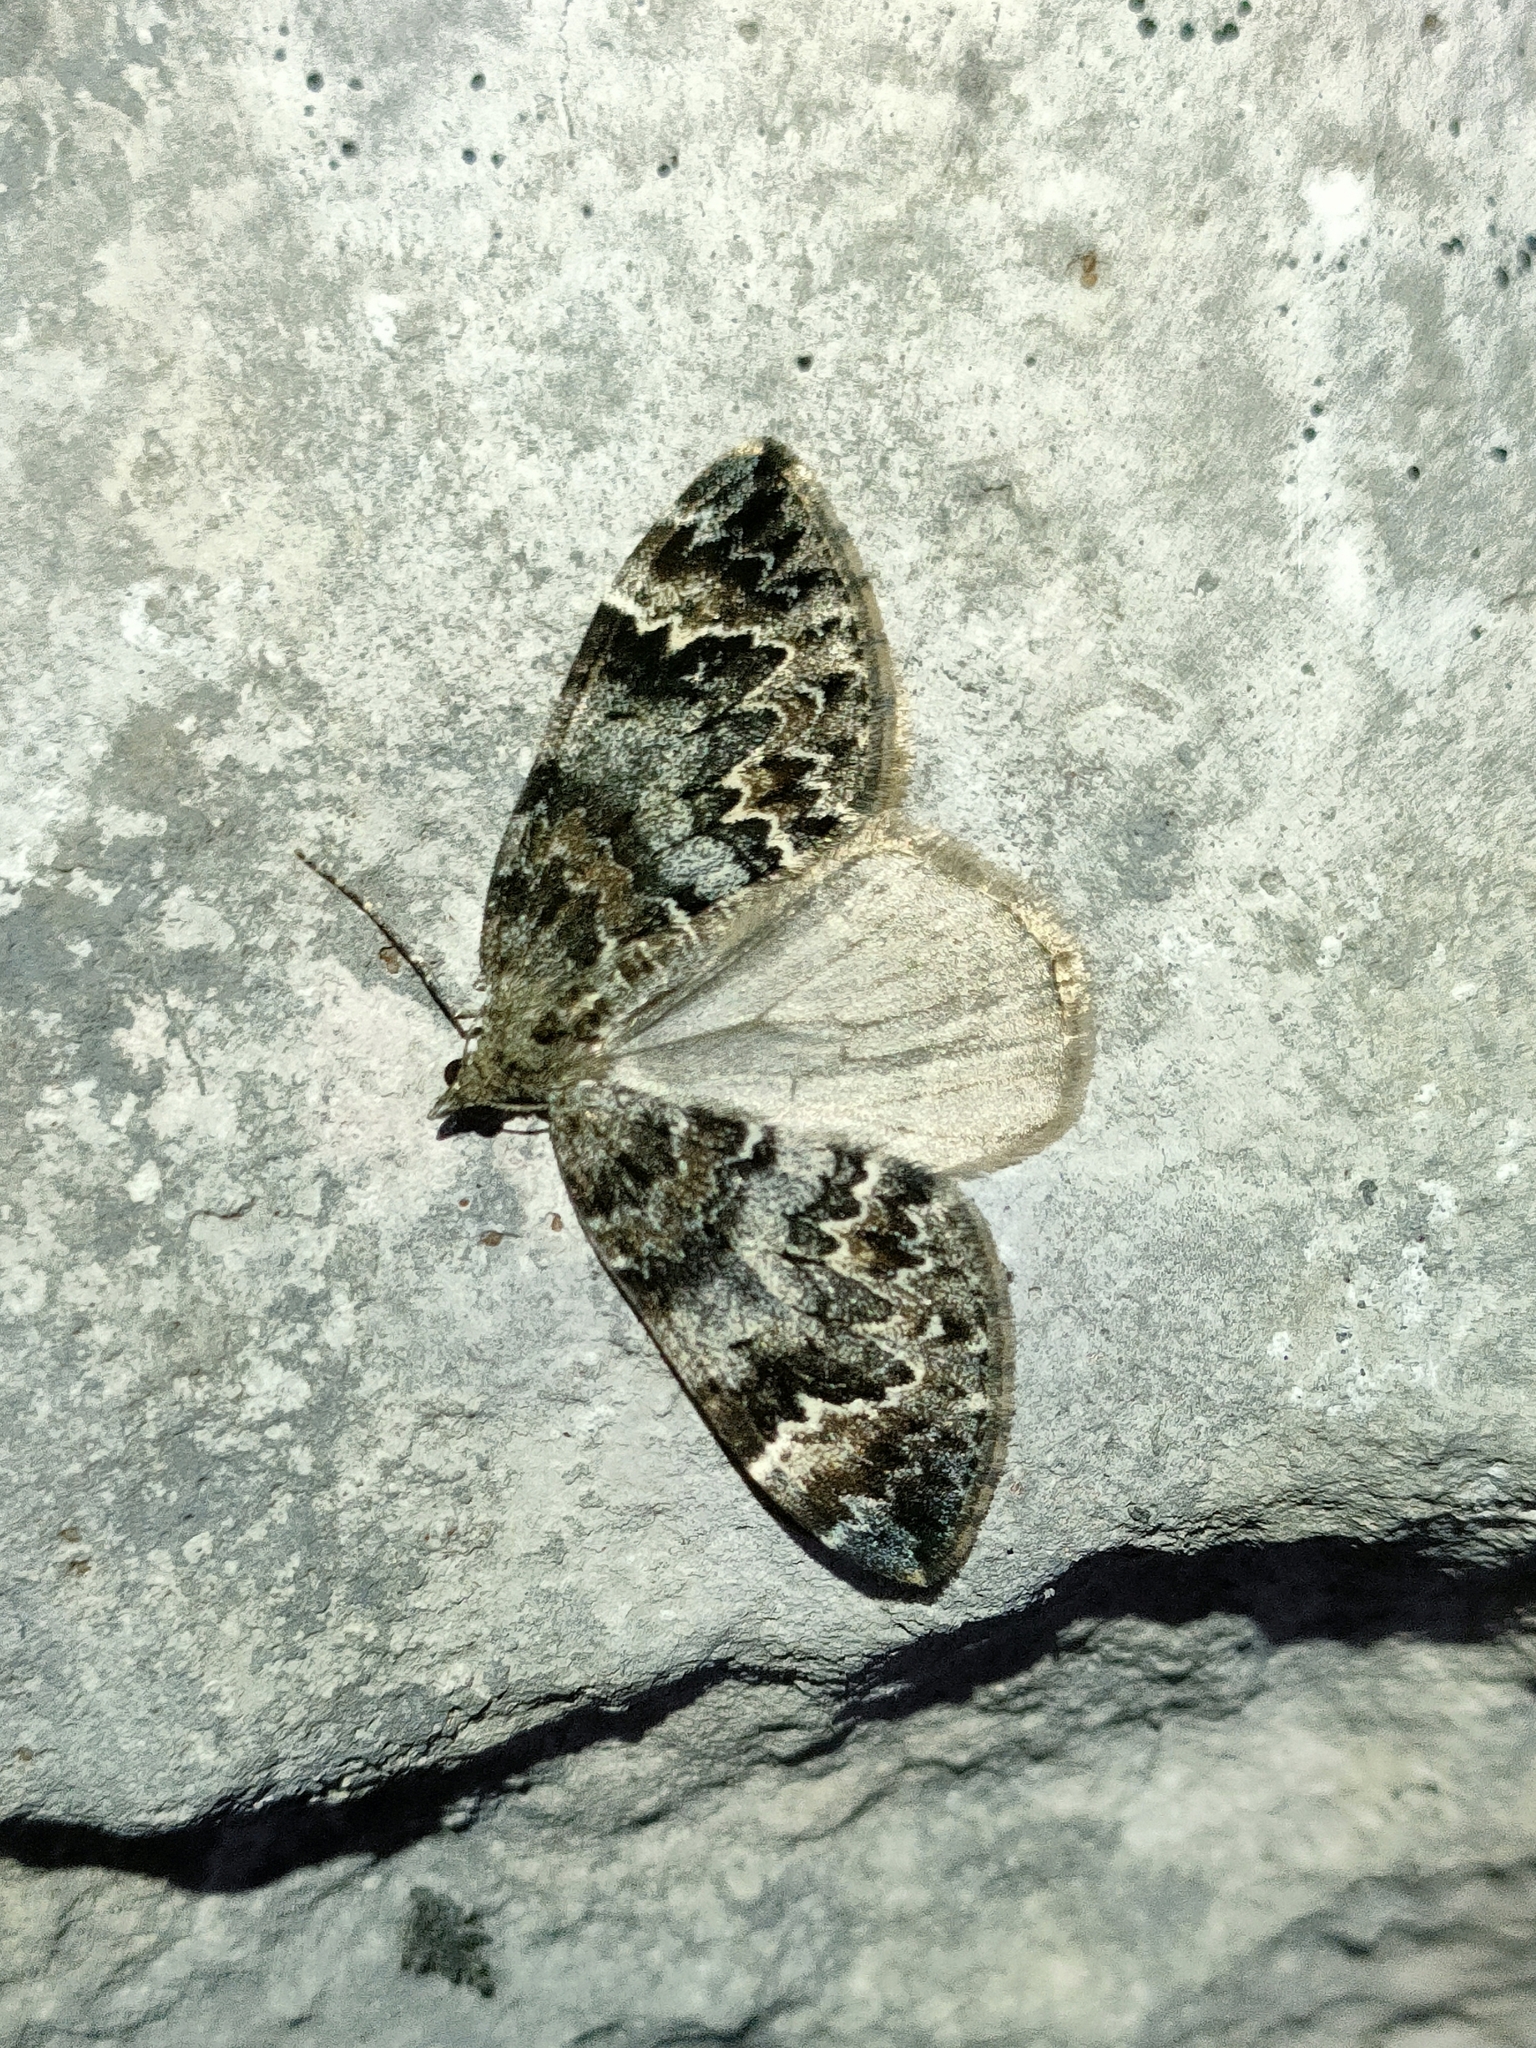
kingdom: Animalia
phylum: Arthropoda
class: Insecta
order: Lepidoptera
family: Geometridae
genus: Dysstroma
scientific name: Dysstroma citrata
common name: Dark marbled carpet
